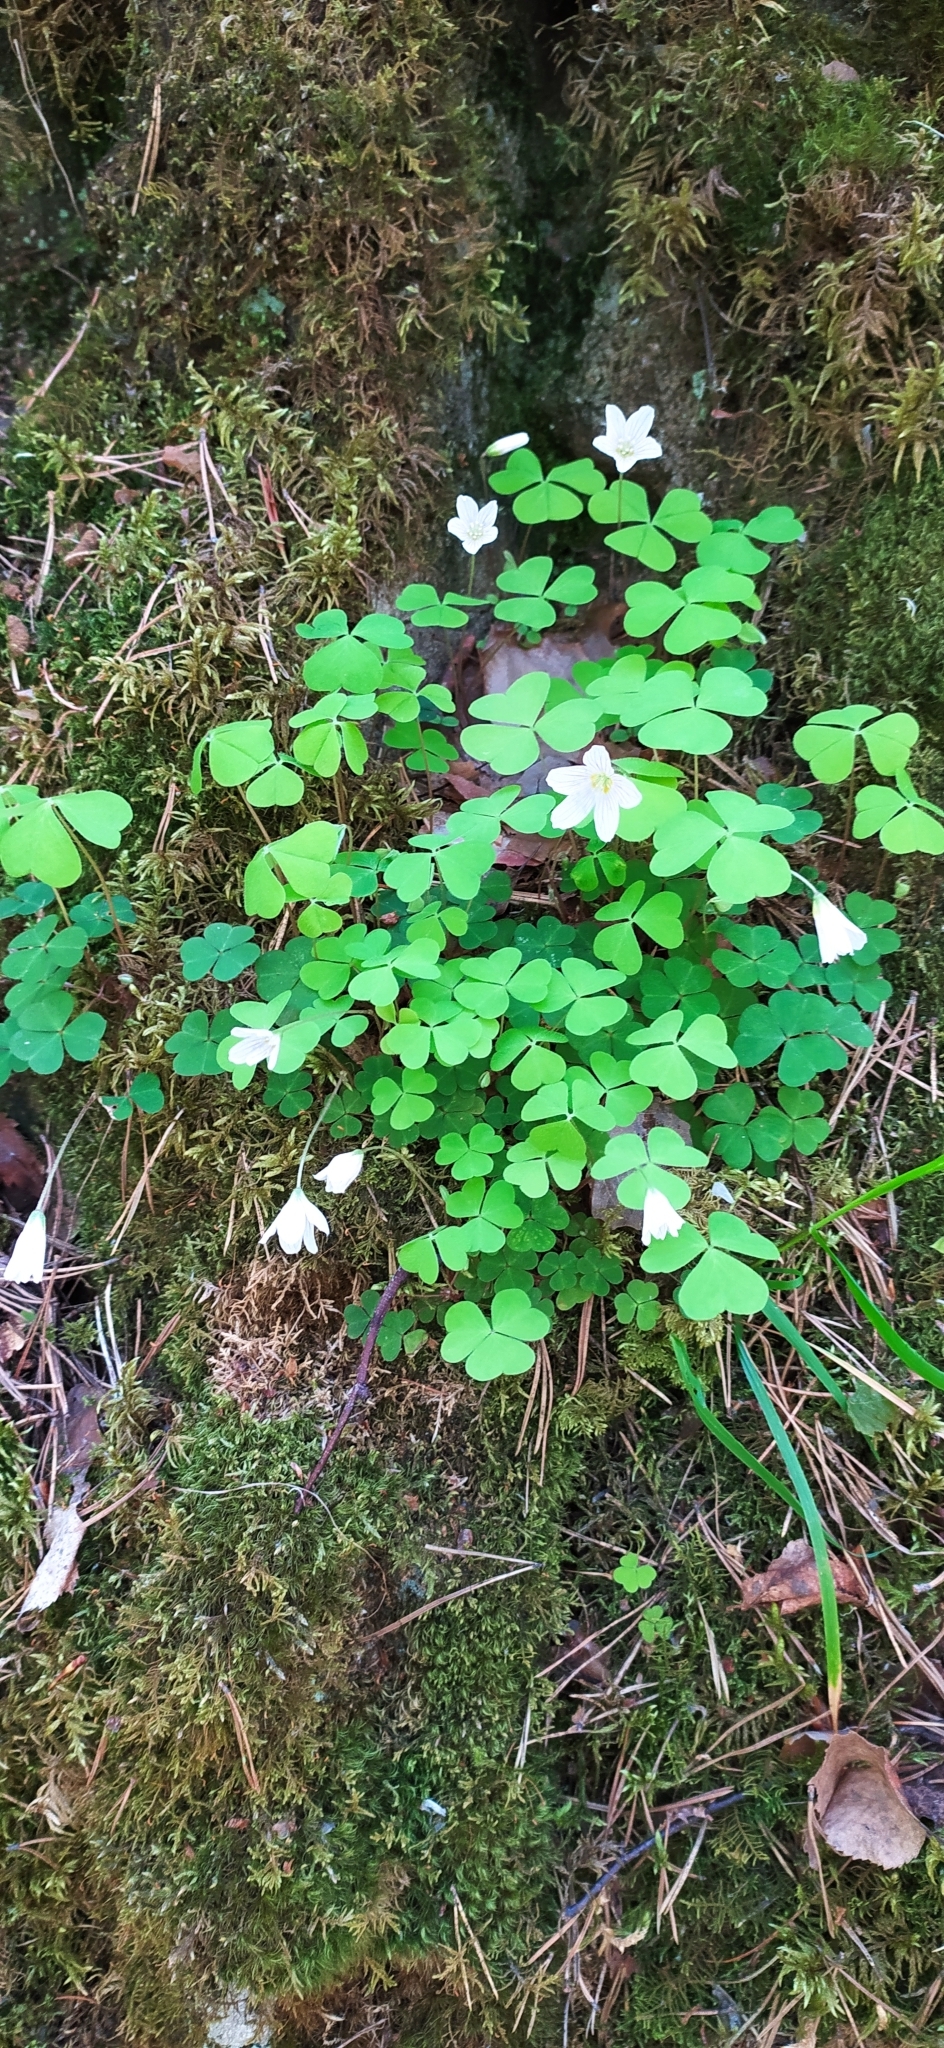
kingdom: Plantae
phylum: Tracheophyta
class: Magnoliopsida
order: Oxalidales
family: Oxalidaceae
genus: Oxalis
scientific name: Oxalis acetosella
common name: Wood-sorrel
